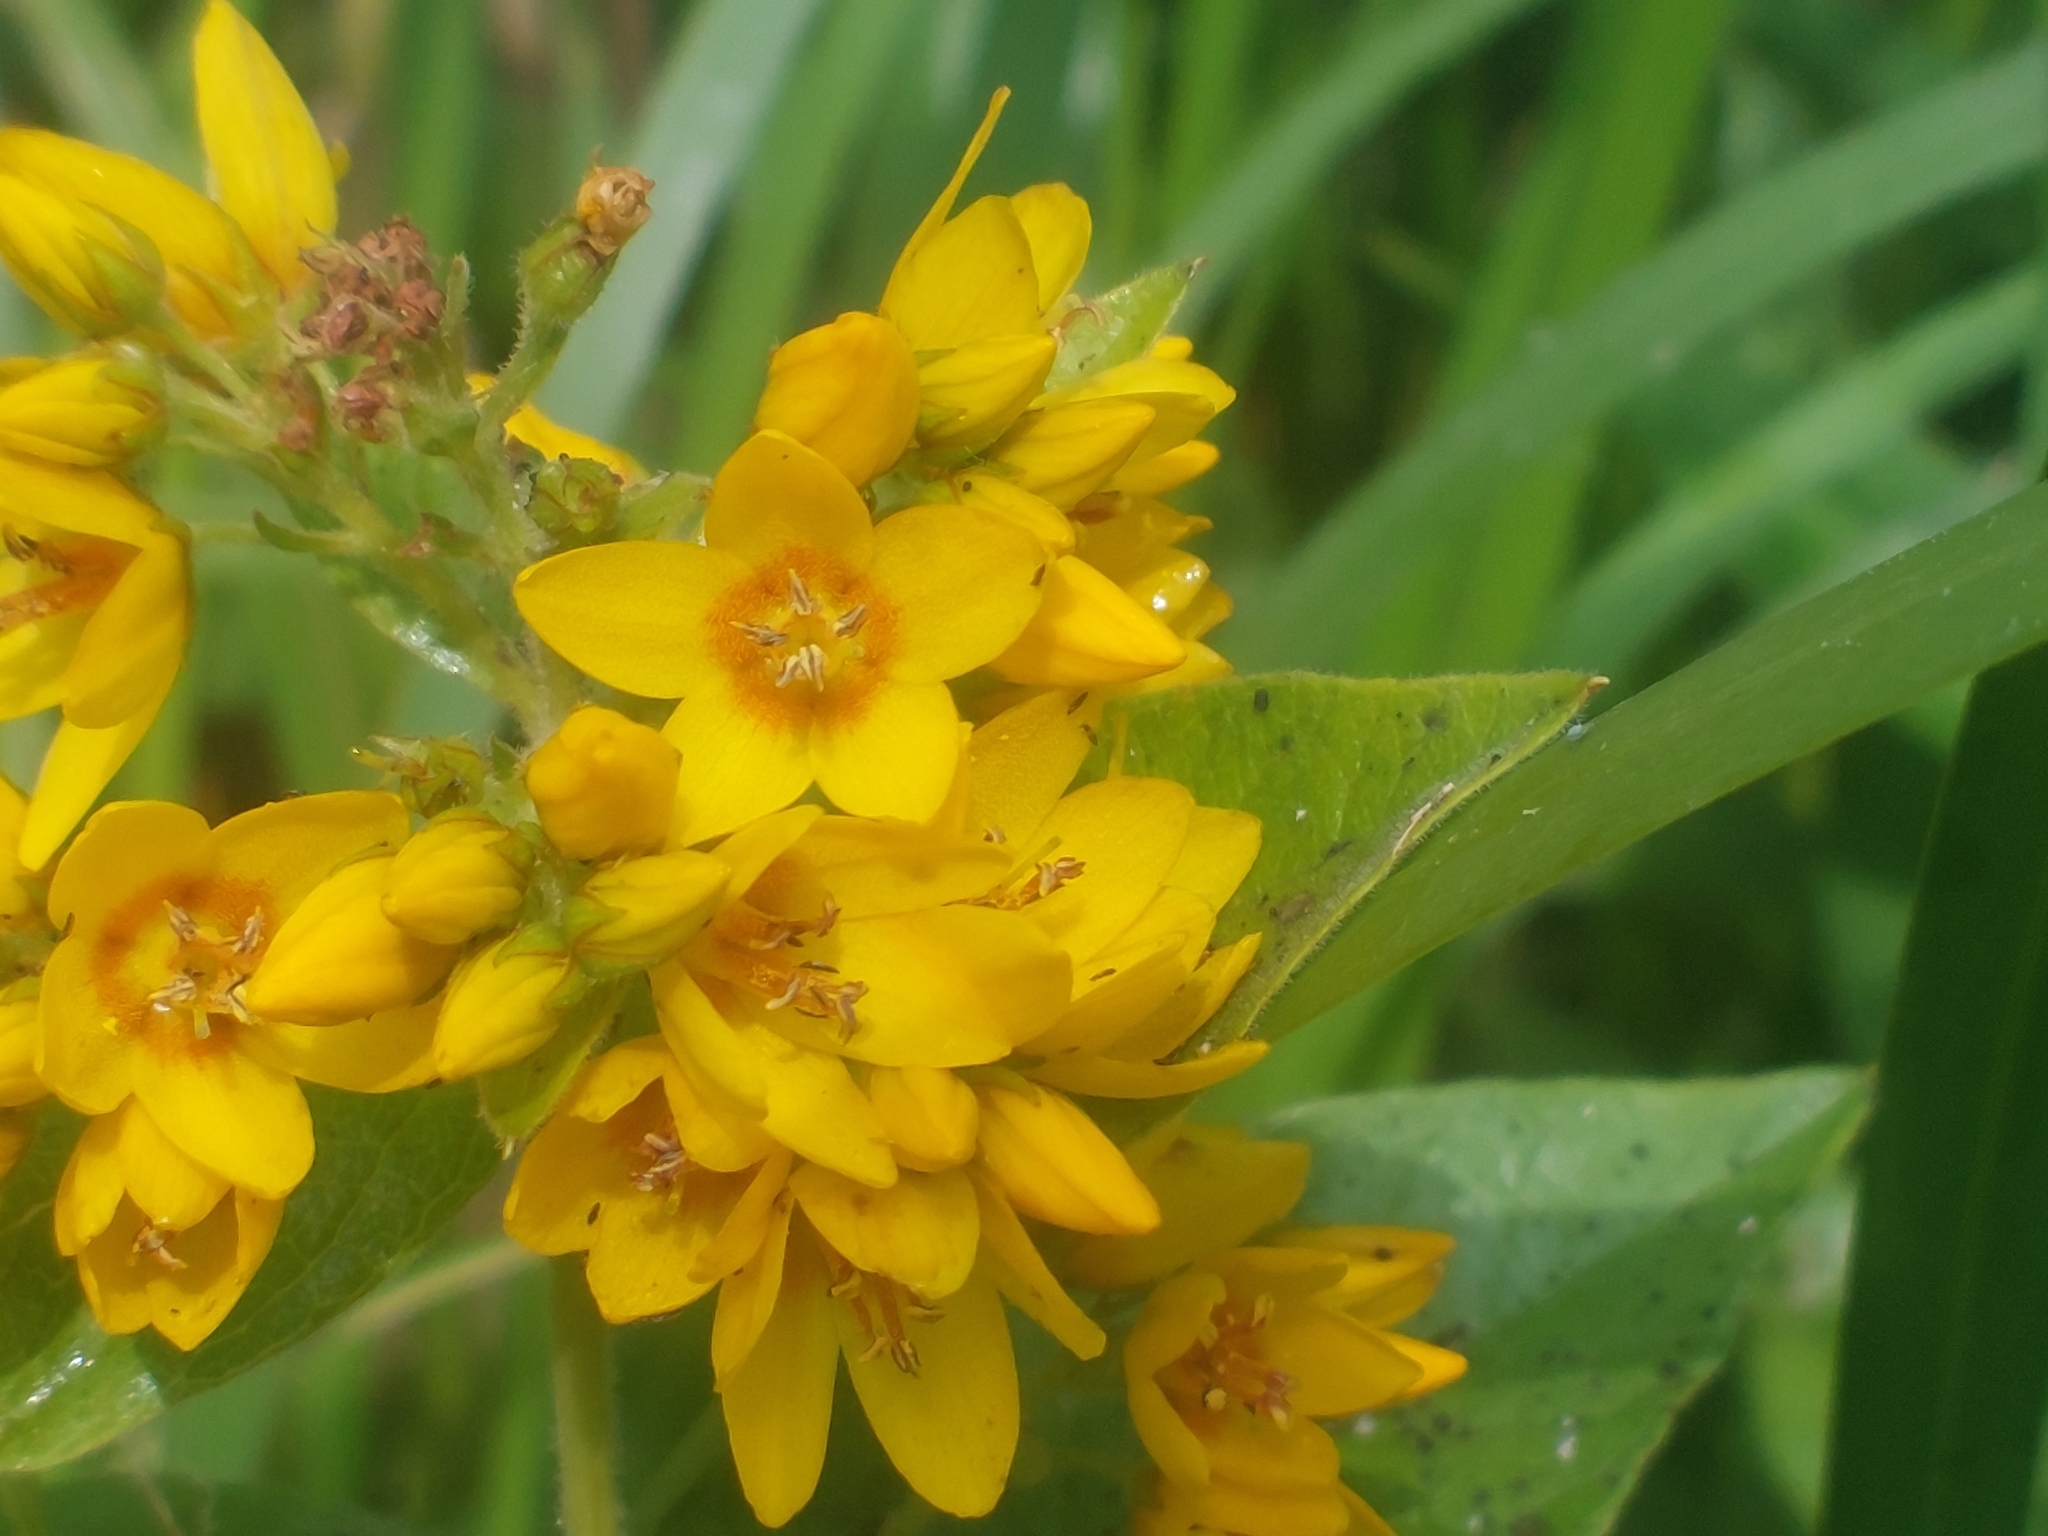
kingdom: Plantae
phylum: Tracheophyta
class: Magnoliopsida
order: Ericales
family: Primulaceae
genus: Lysimachia
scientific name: Lysimachia vulgaris
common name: Yellow loosestrife
